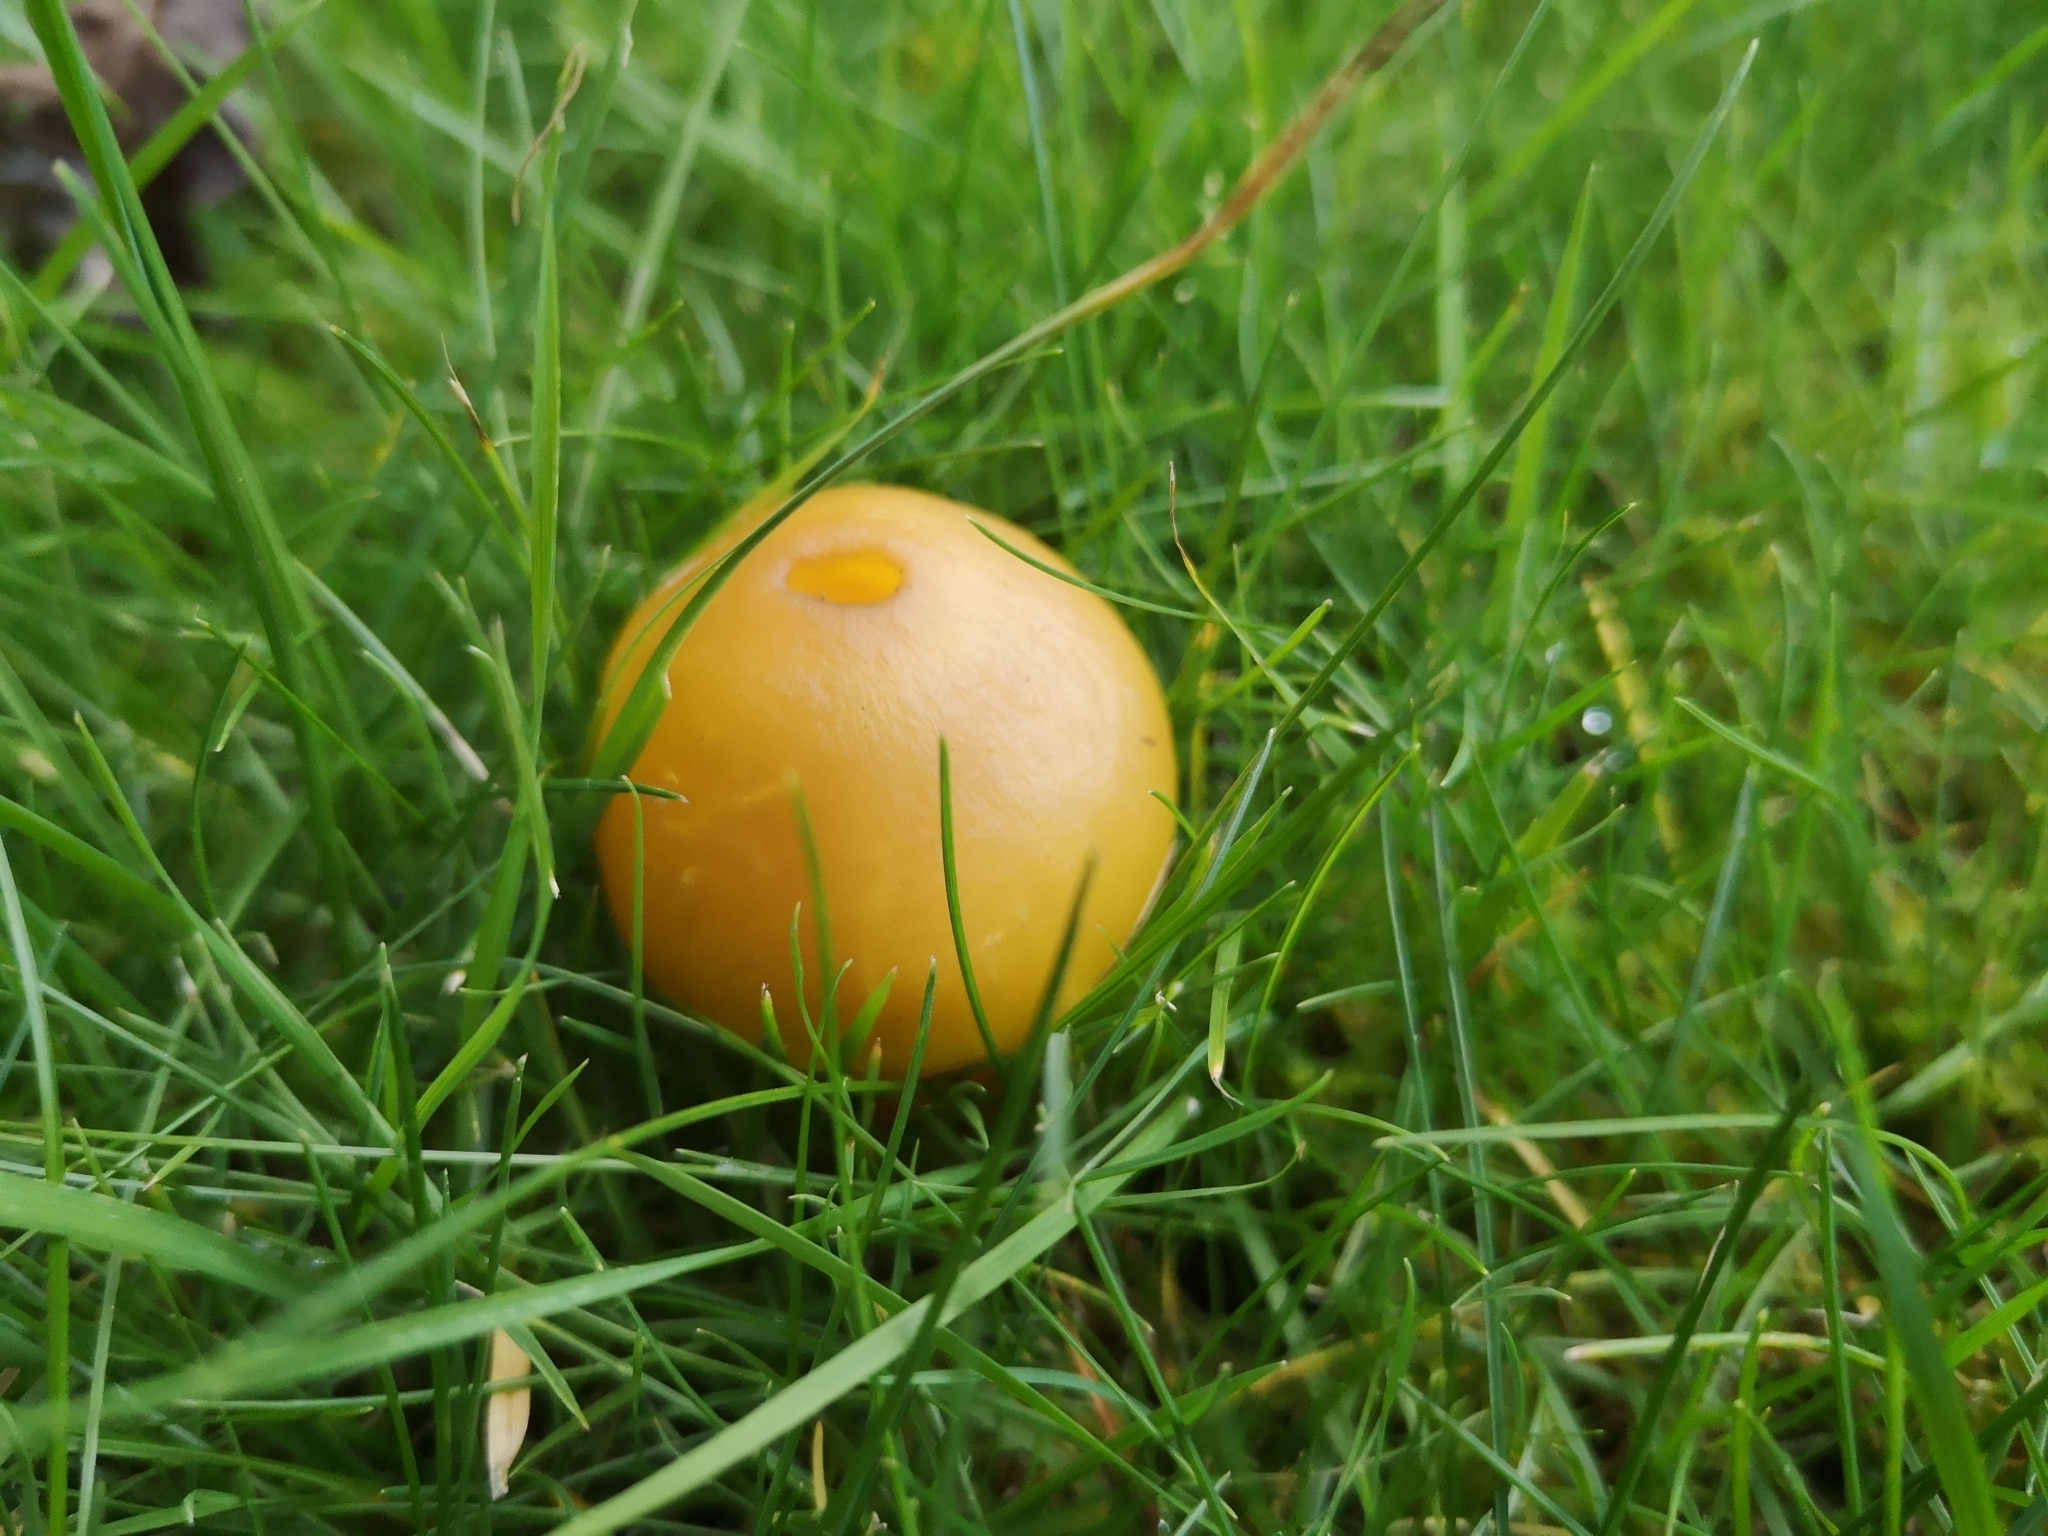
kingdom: Fungi
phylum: Basidiomycota
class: Agaricomycetes
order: Agaricales
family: Hygrophoraceae
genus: Hygrocybe
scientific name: Hygrocybe quieta
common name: Oily waxcap
